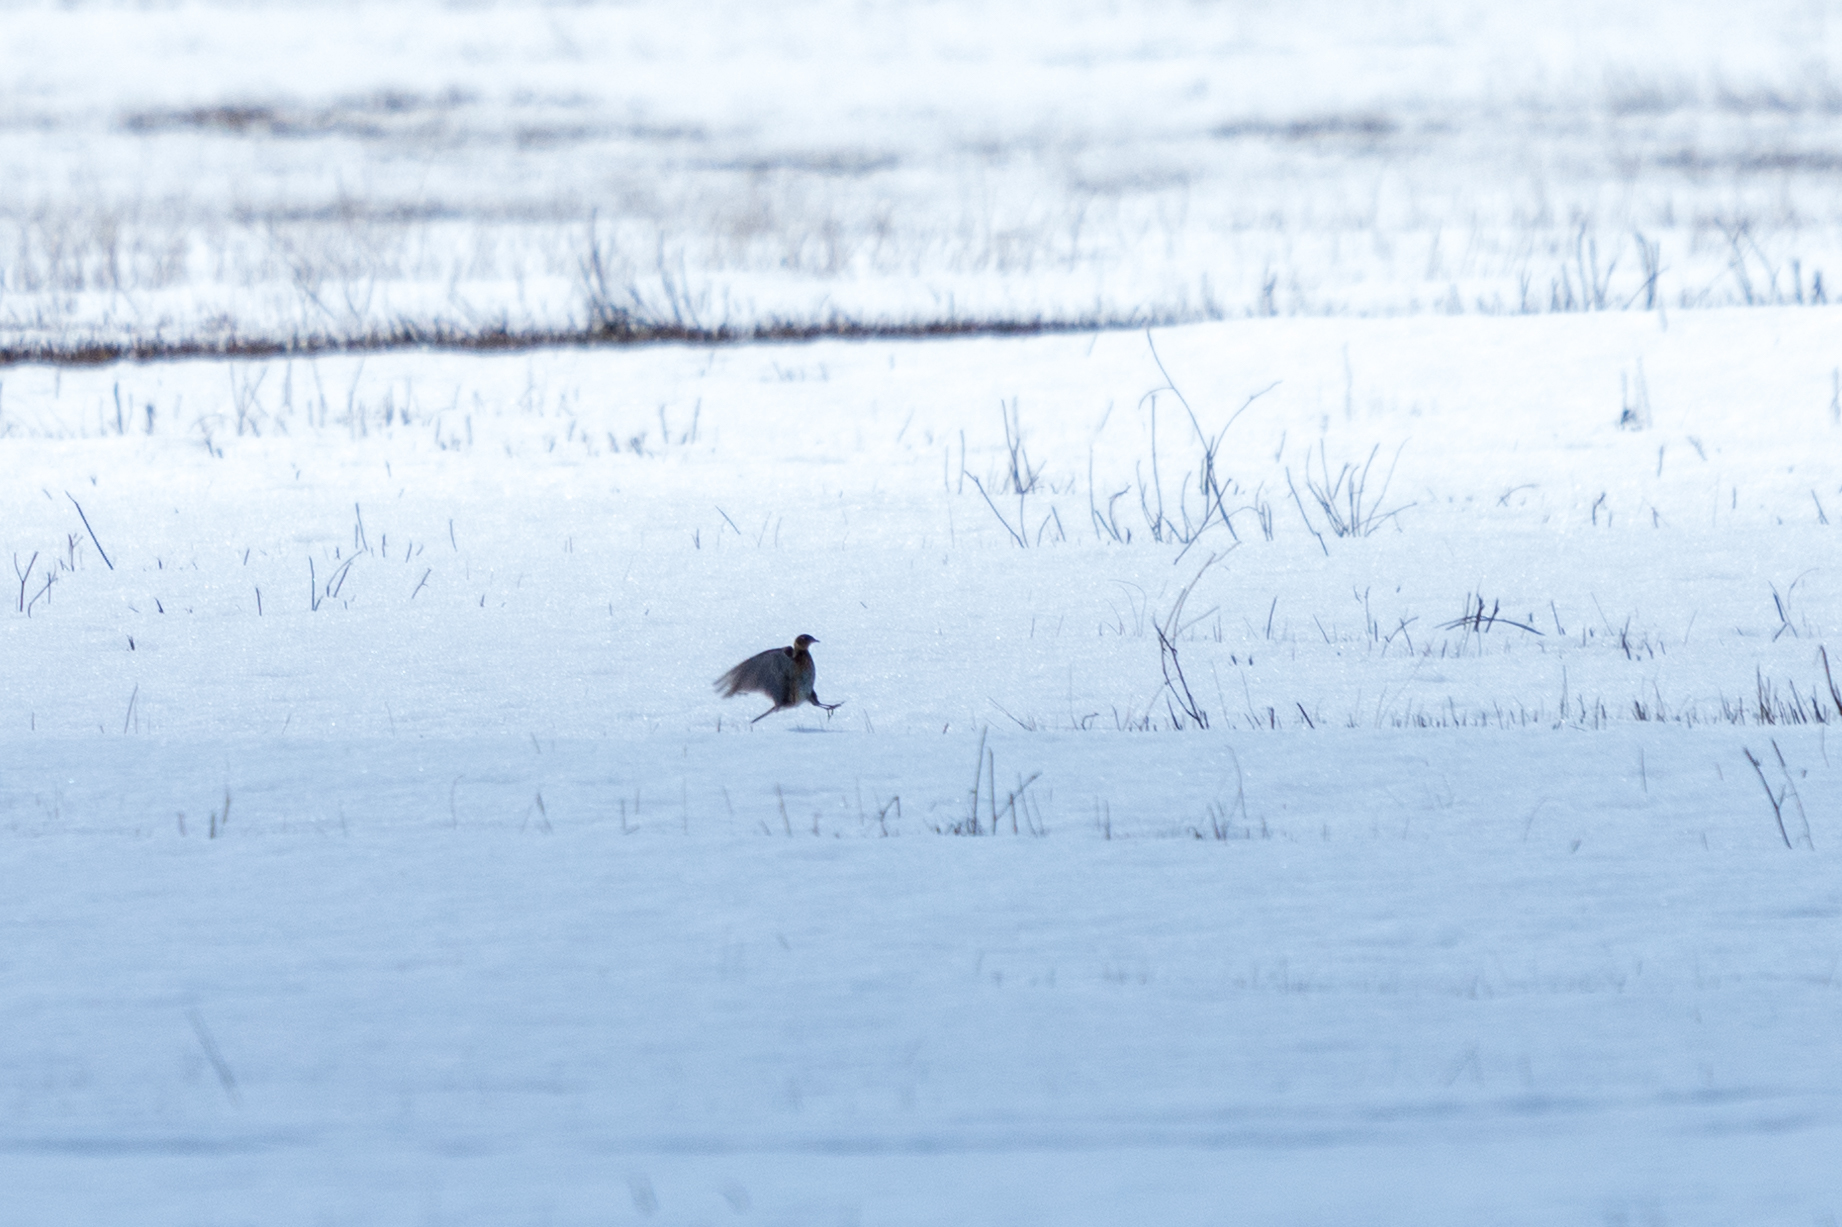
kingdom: Animalia
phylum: Chordata
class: Aves
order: Passeriformes
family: Alaudidae
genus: Alauda
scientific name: Alauda arvensis
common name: Eurasian skylark
